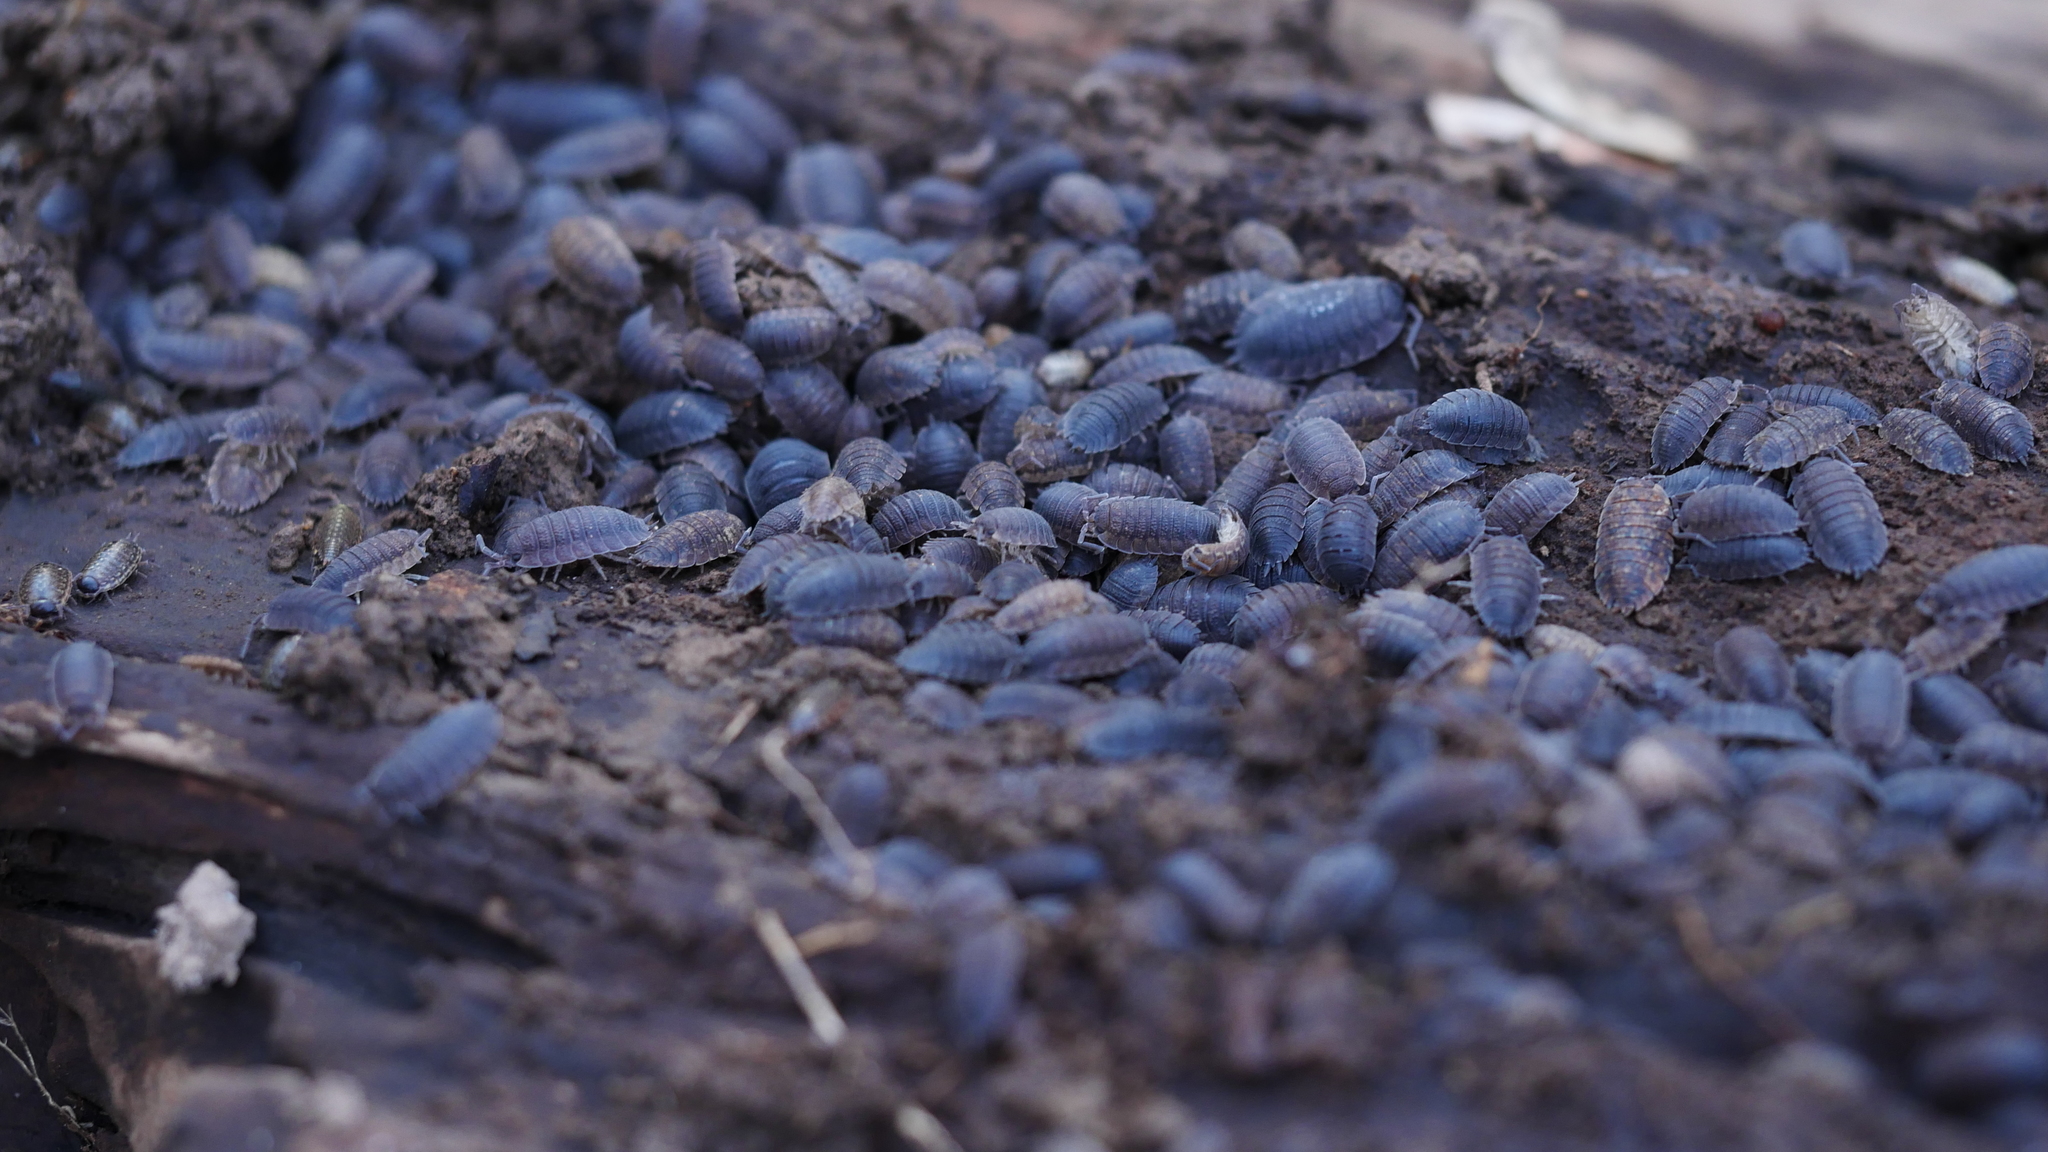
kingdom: Animalia
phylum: Arthropoda
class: Malacostraca
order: Isopoda
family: Porcellionidae
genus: Porcellio
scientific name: Porcellio scaber
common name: Common rough woodlouse
